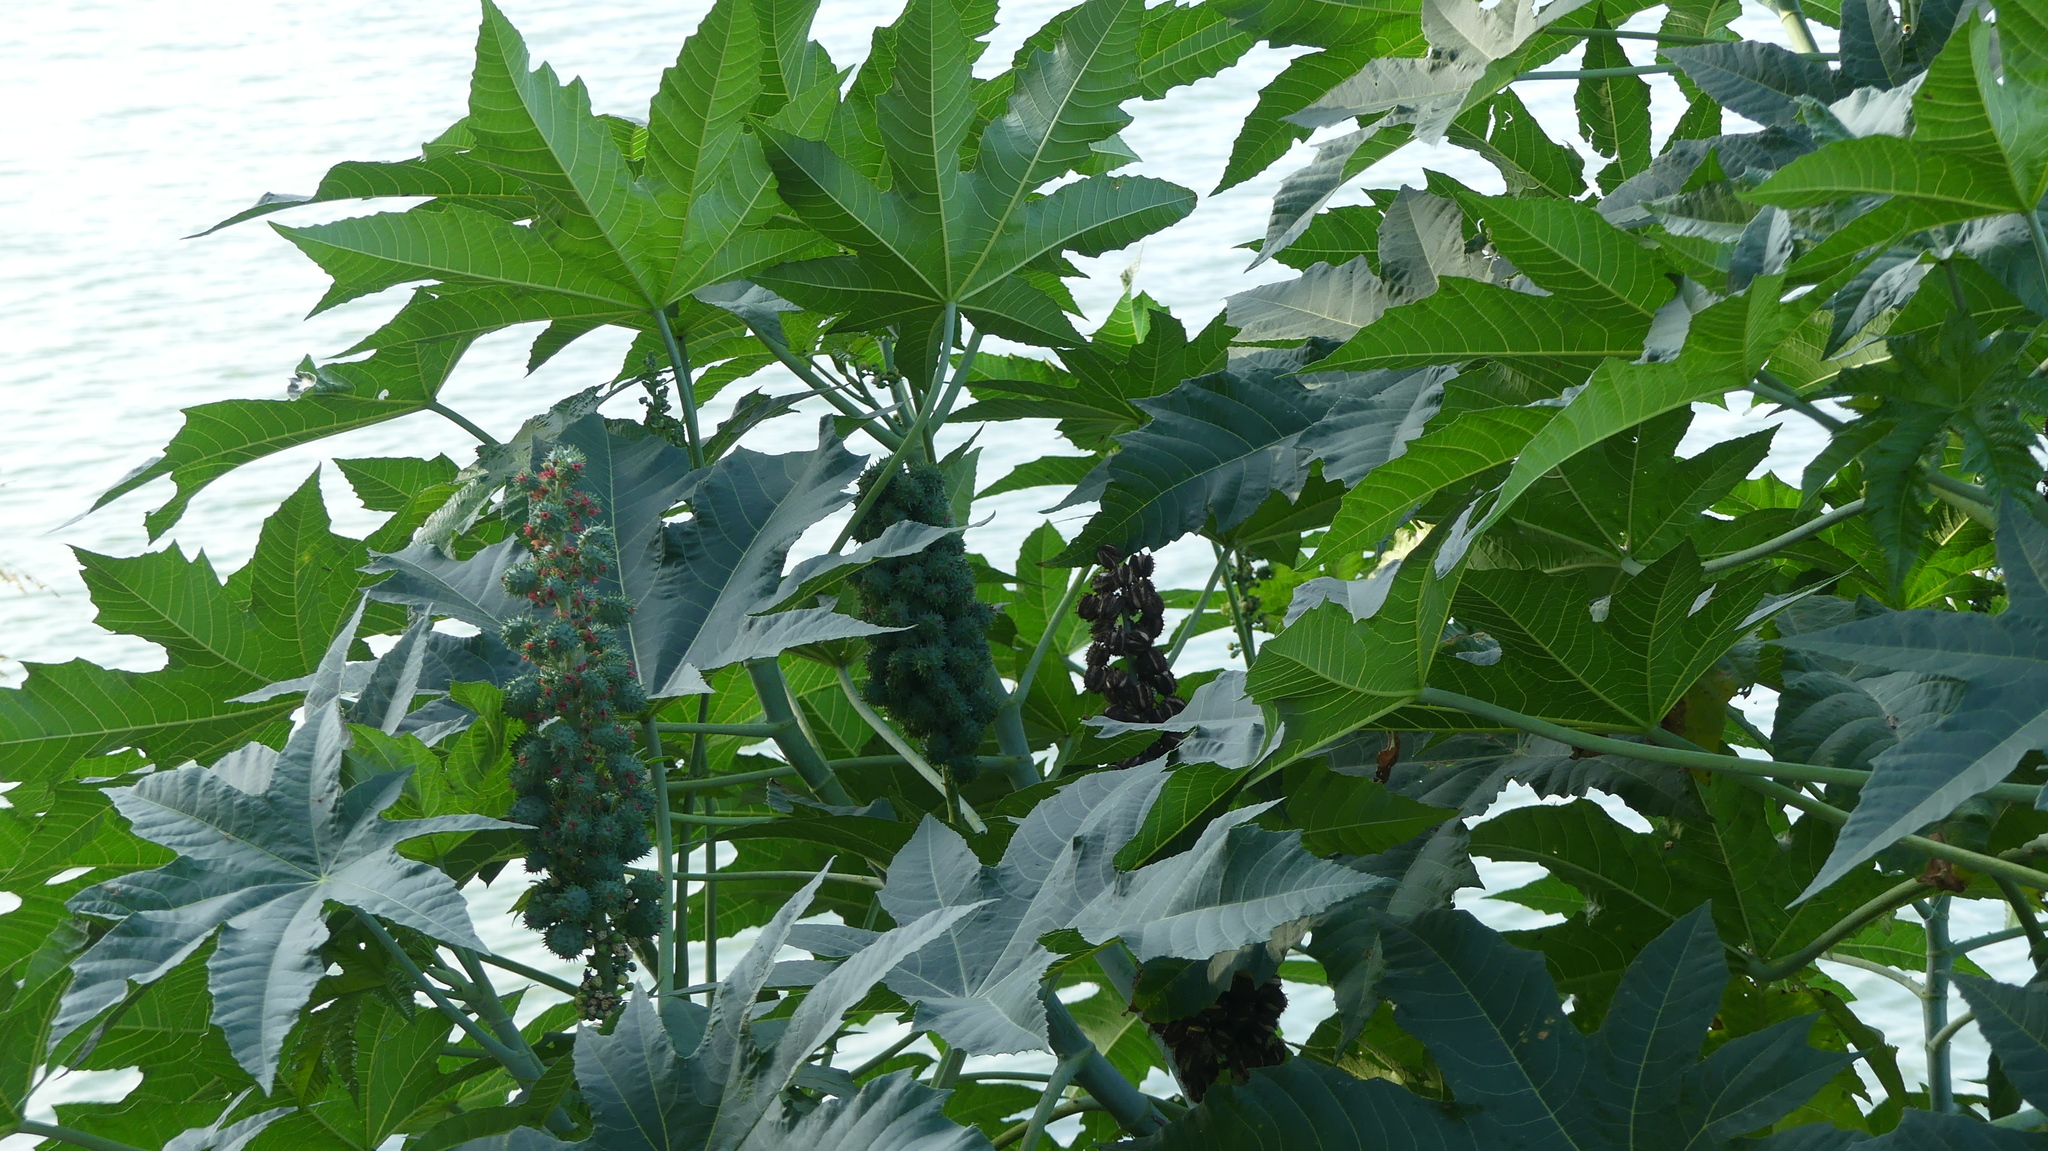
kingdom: Plantae
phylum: Tracheophyta
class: Magnoliopsida
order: Malpighiales
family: Euphorbiaceae
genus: Ricinus
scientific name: Ricinus communis
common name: Castor-oil-plant
